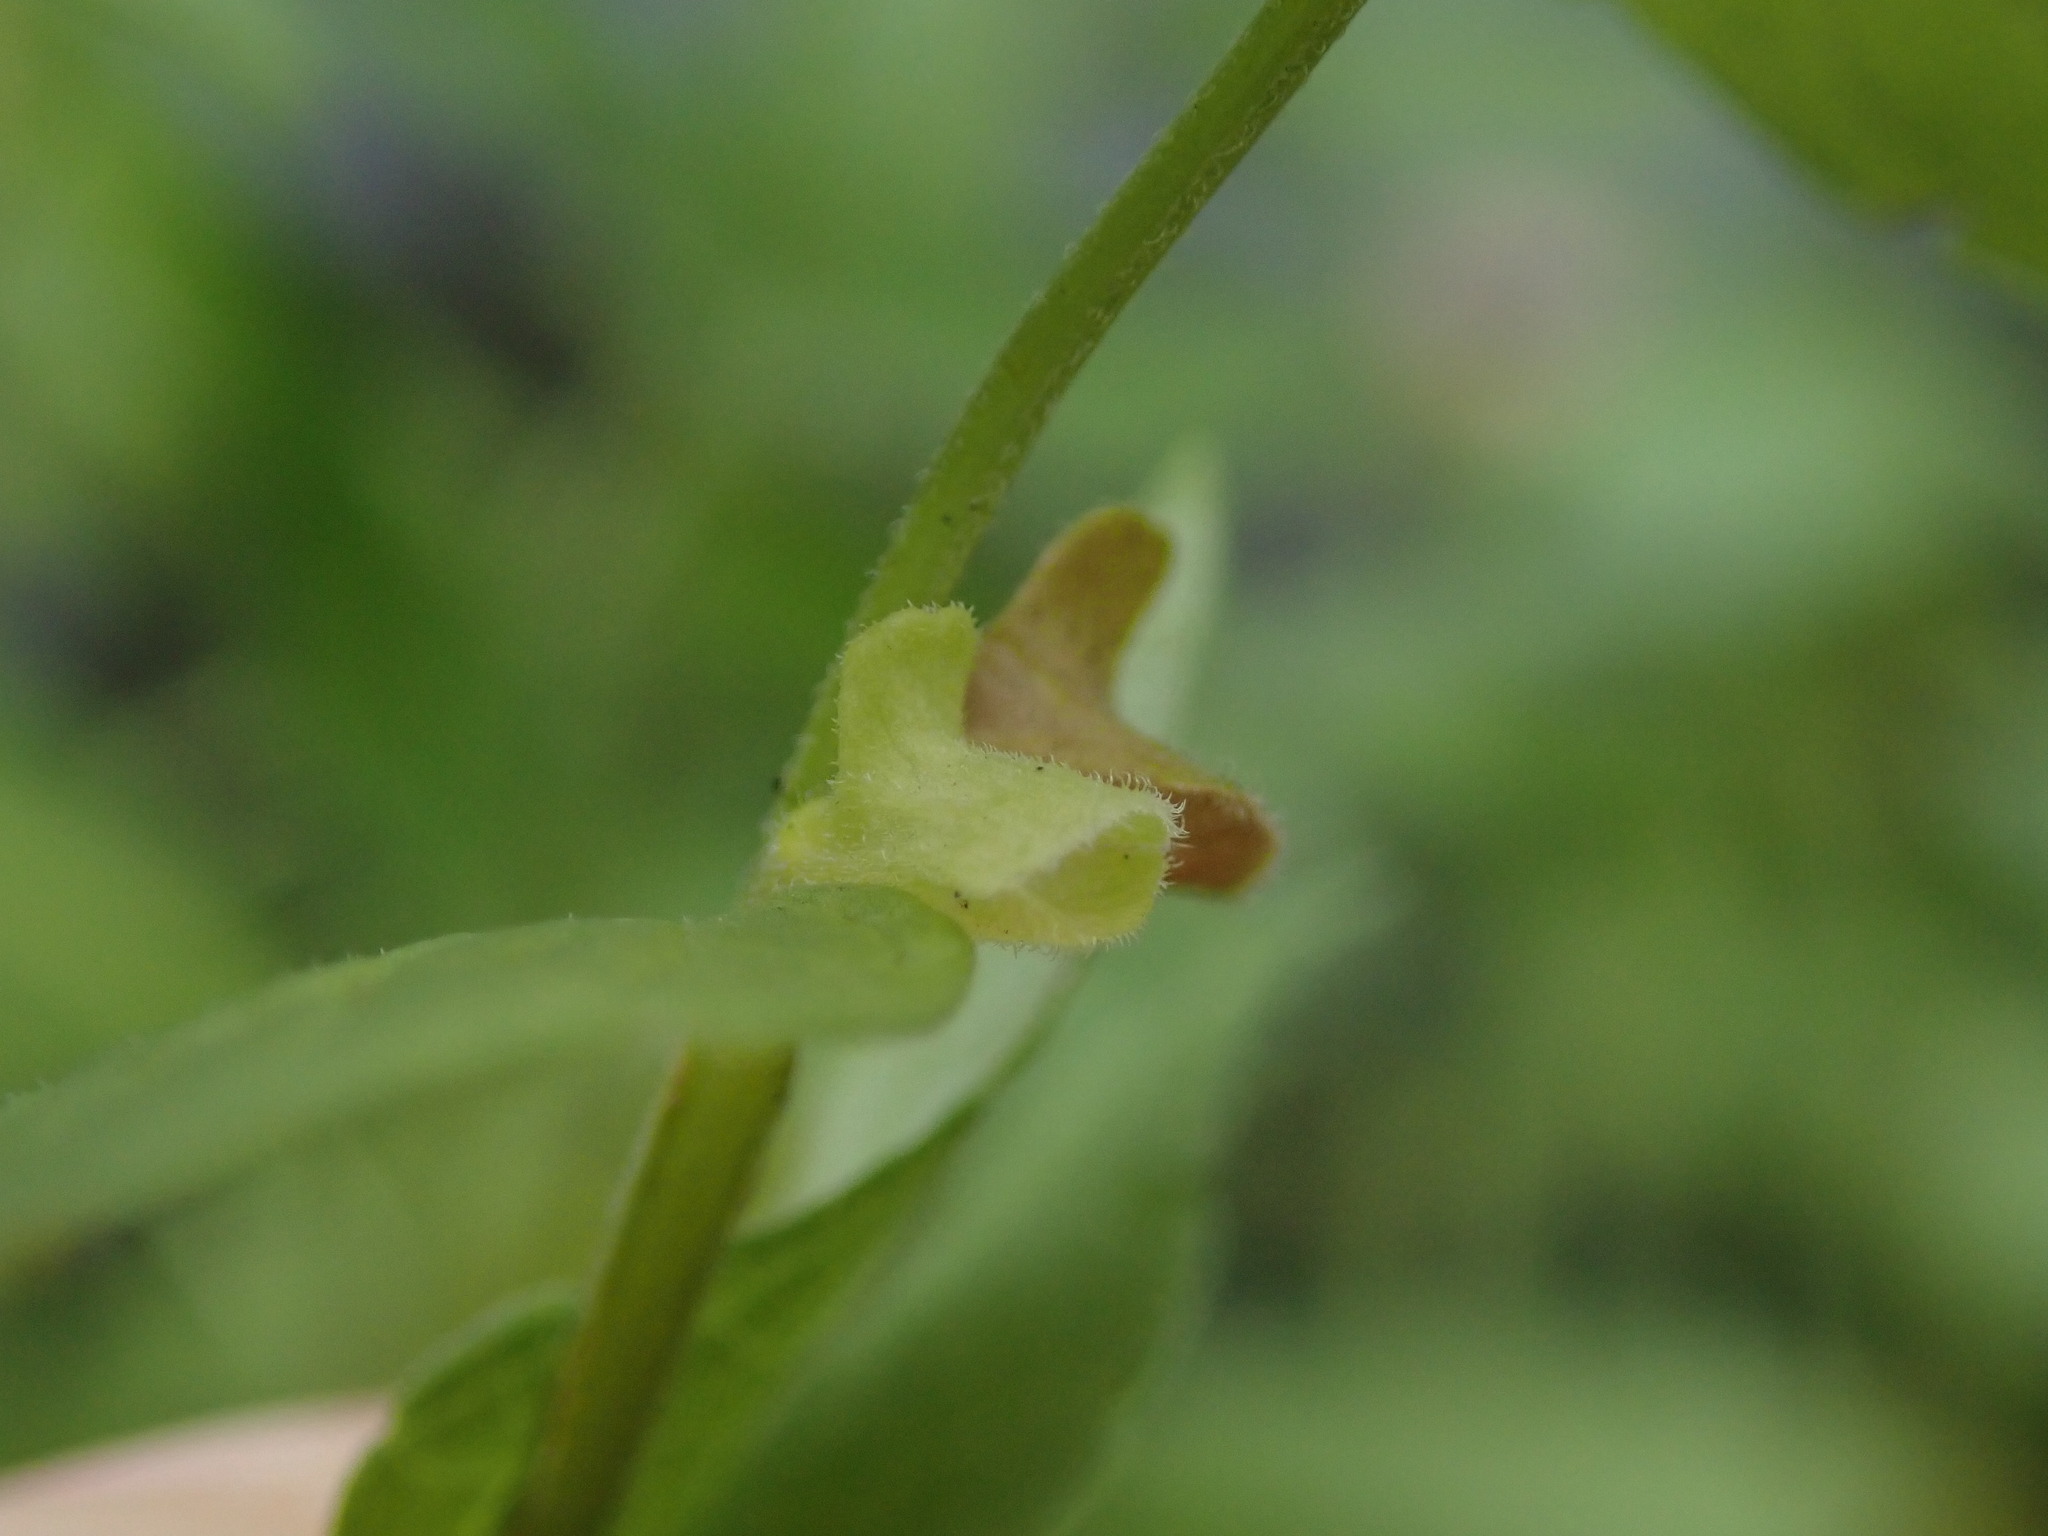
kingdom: Plantae
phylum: Tracheophyta
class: Magnoliopsida
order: Lamiales
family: Lamiaceae
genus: Scutellaria
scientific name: Scutellaria galericulata
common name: Skullcap
